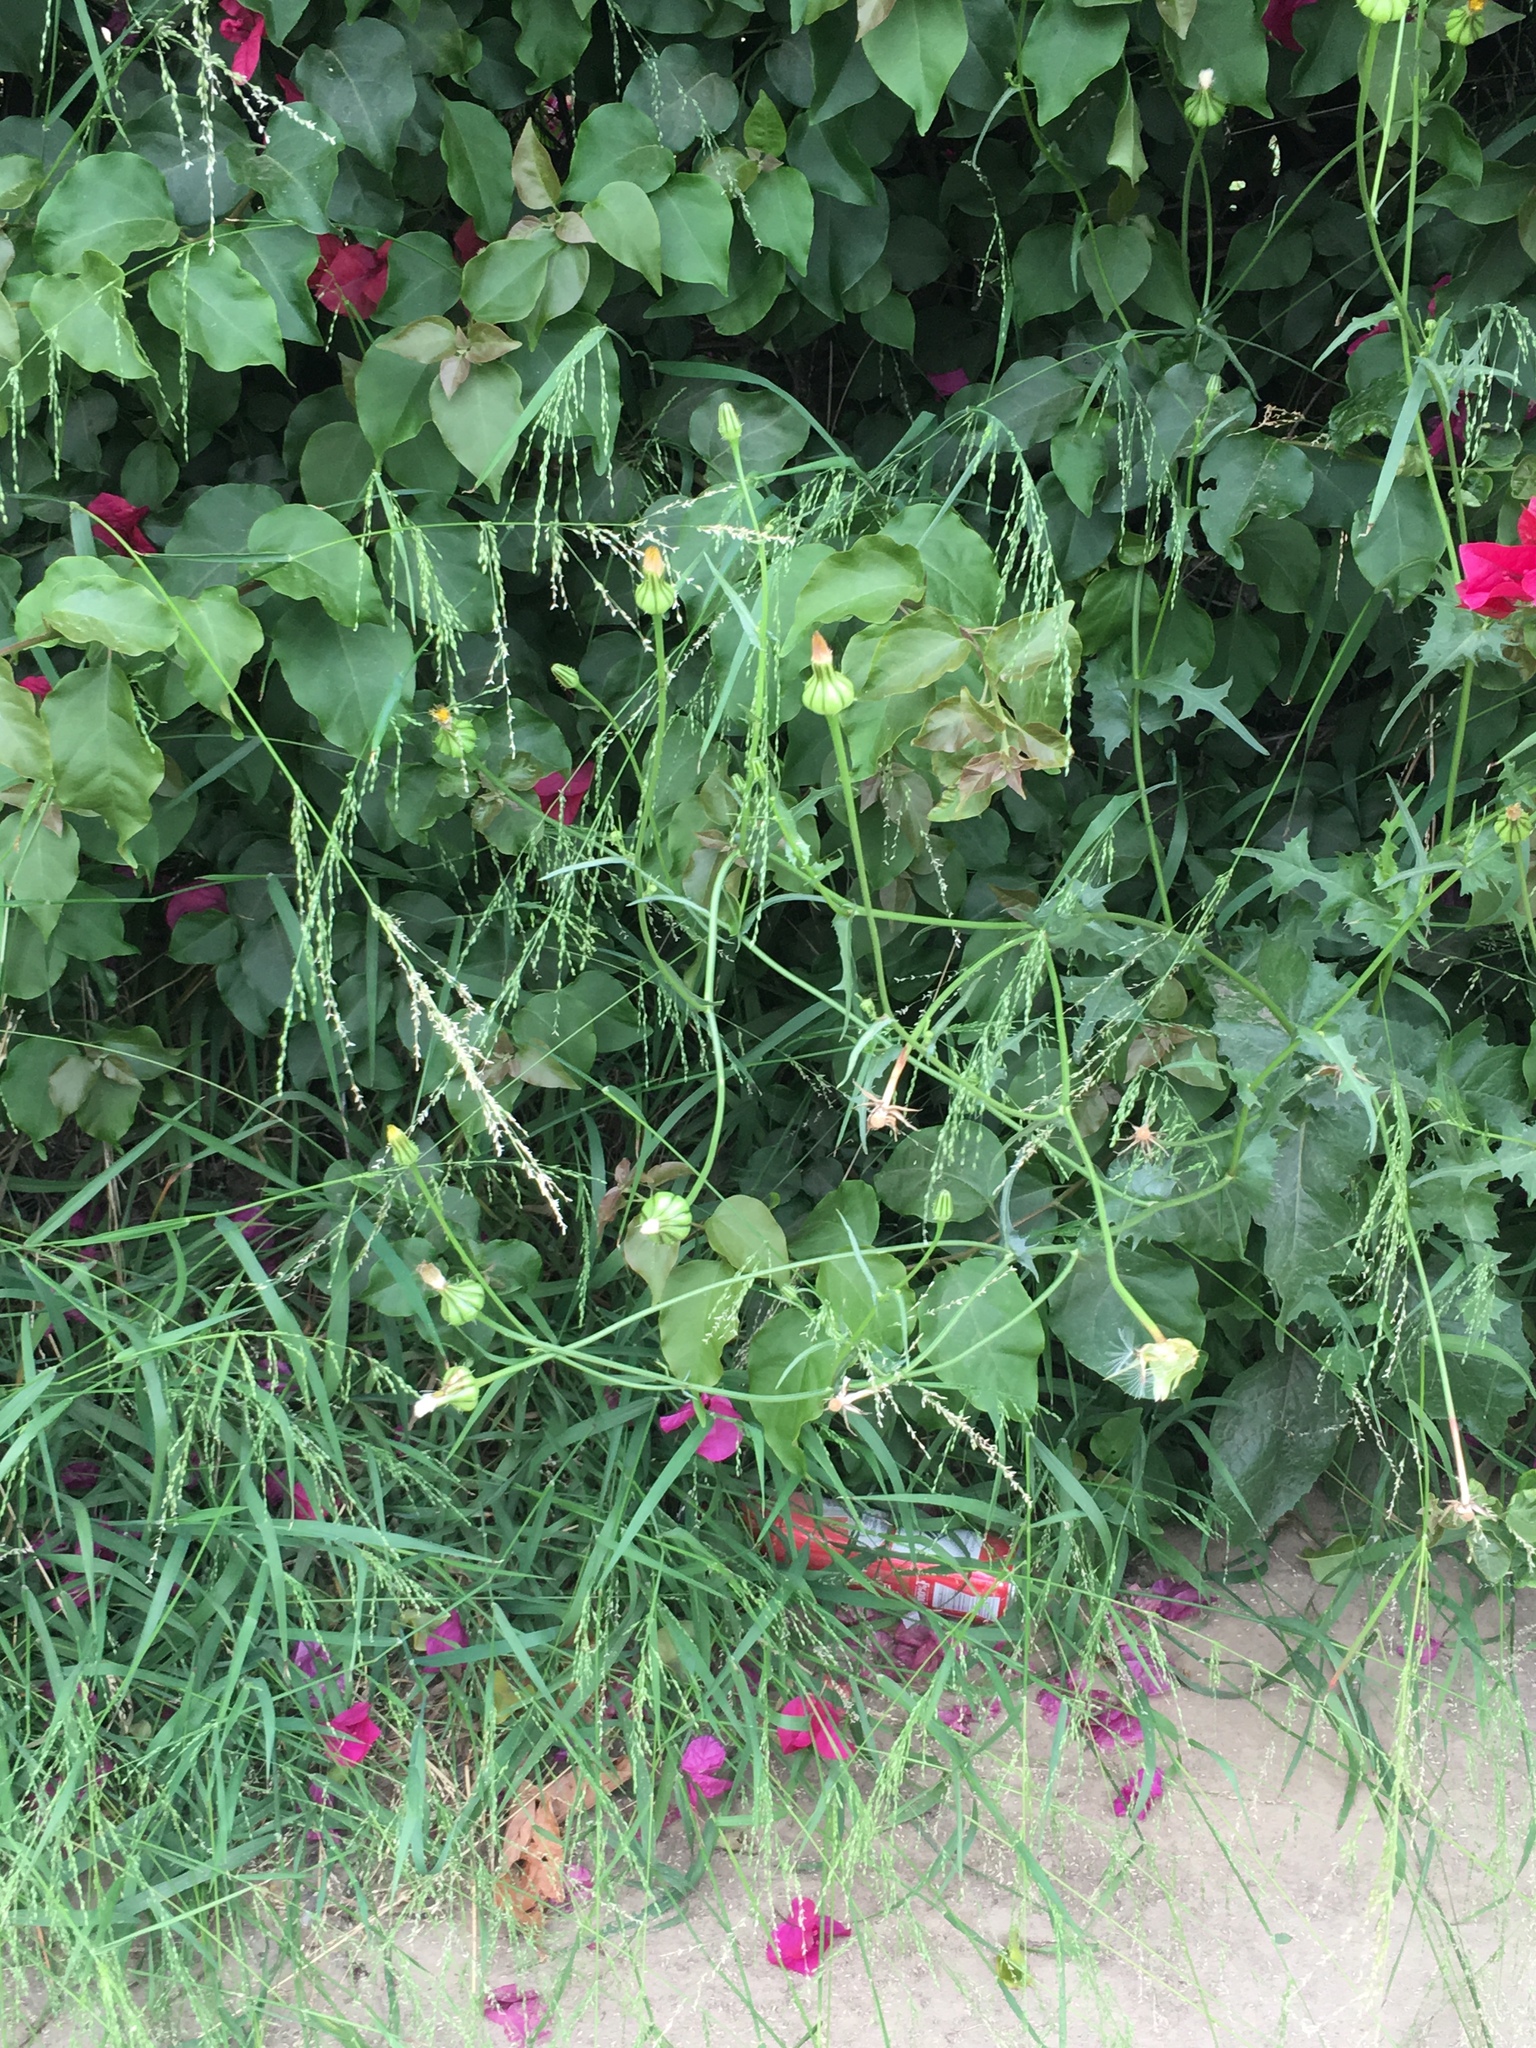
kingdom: Plantae
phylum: Tracheophyta
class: Magnoliopsida
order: Asterales
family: Asteraceae
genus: Urospermum
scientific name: Urospermum picroides
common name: False hawkbit
